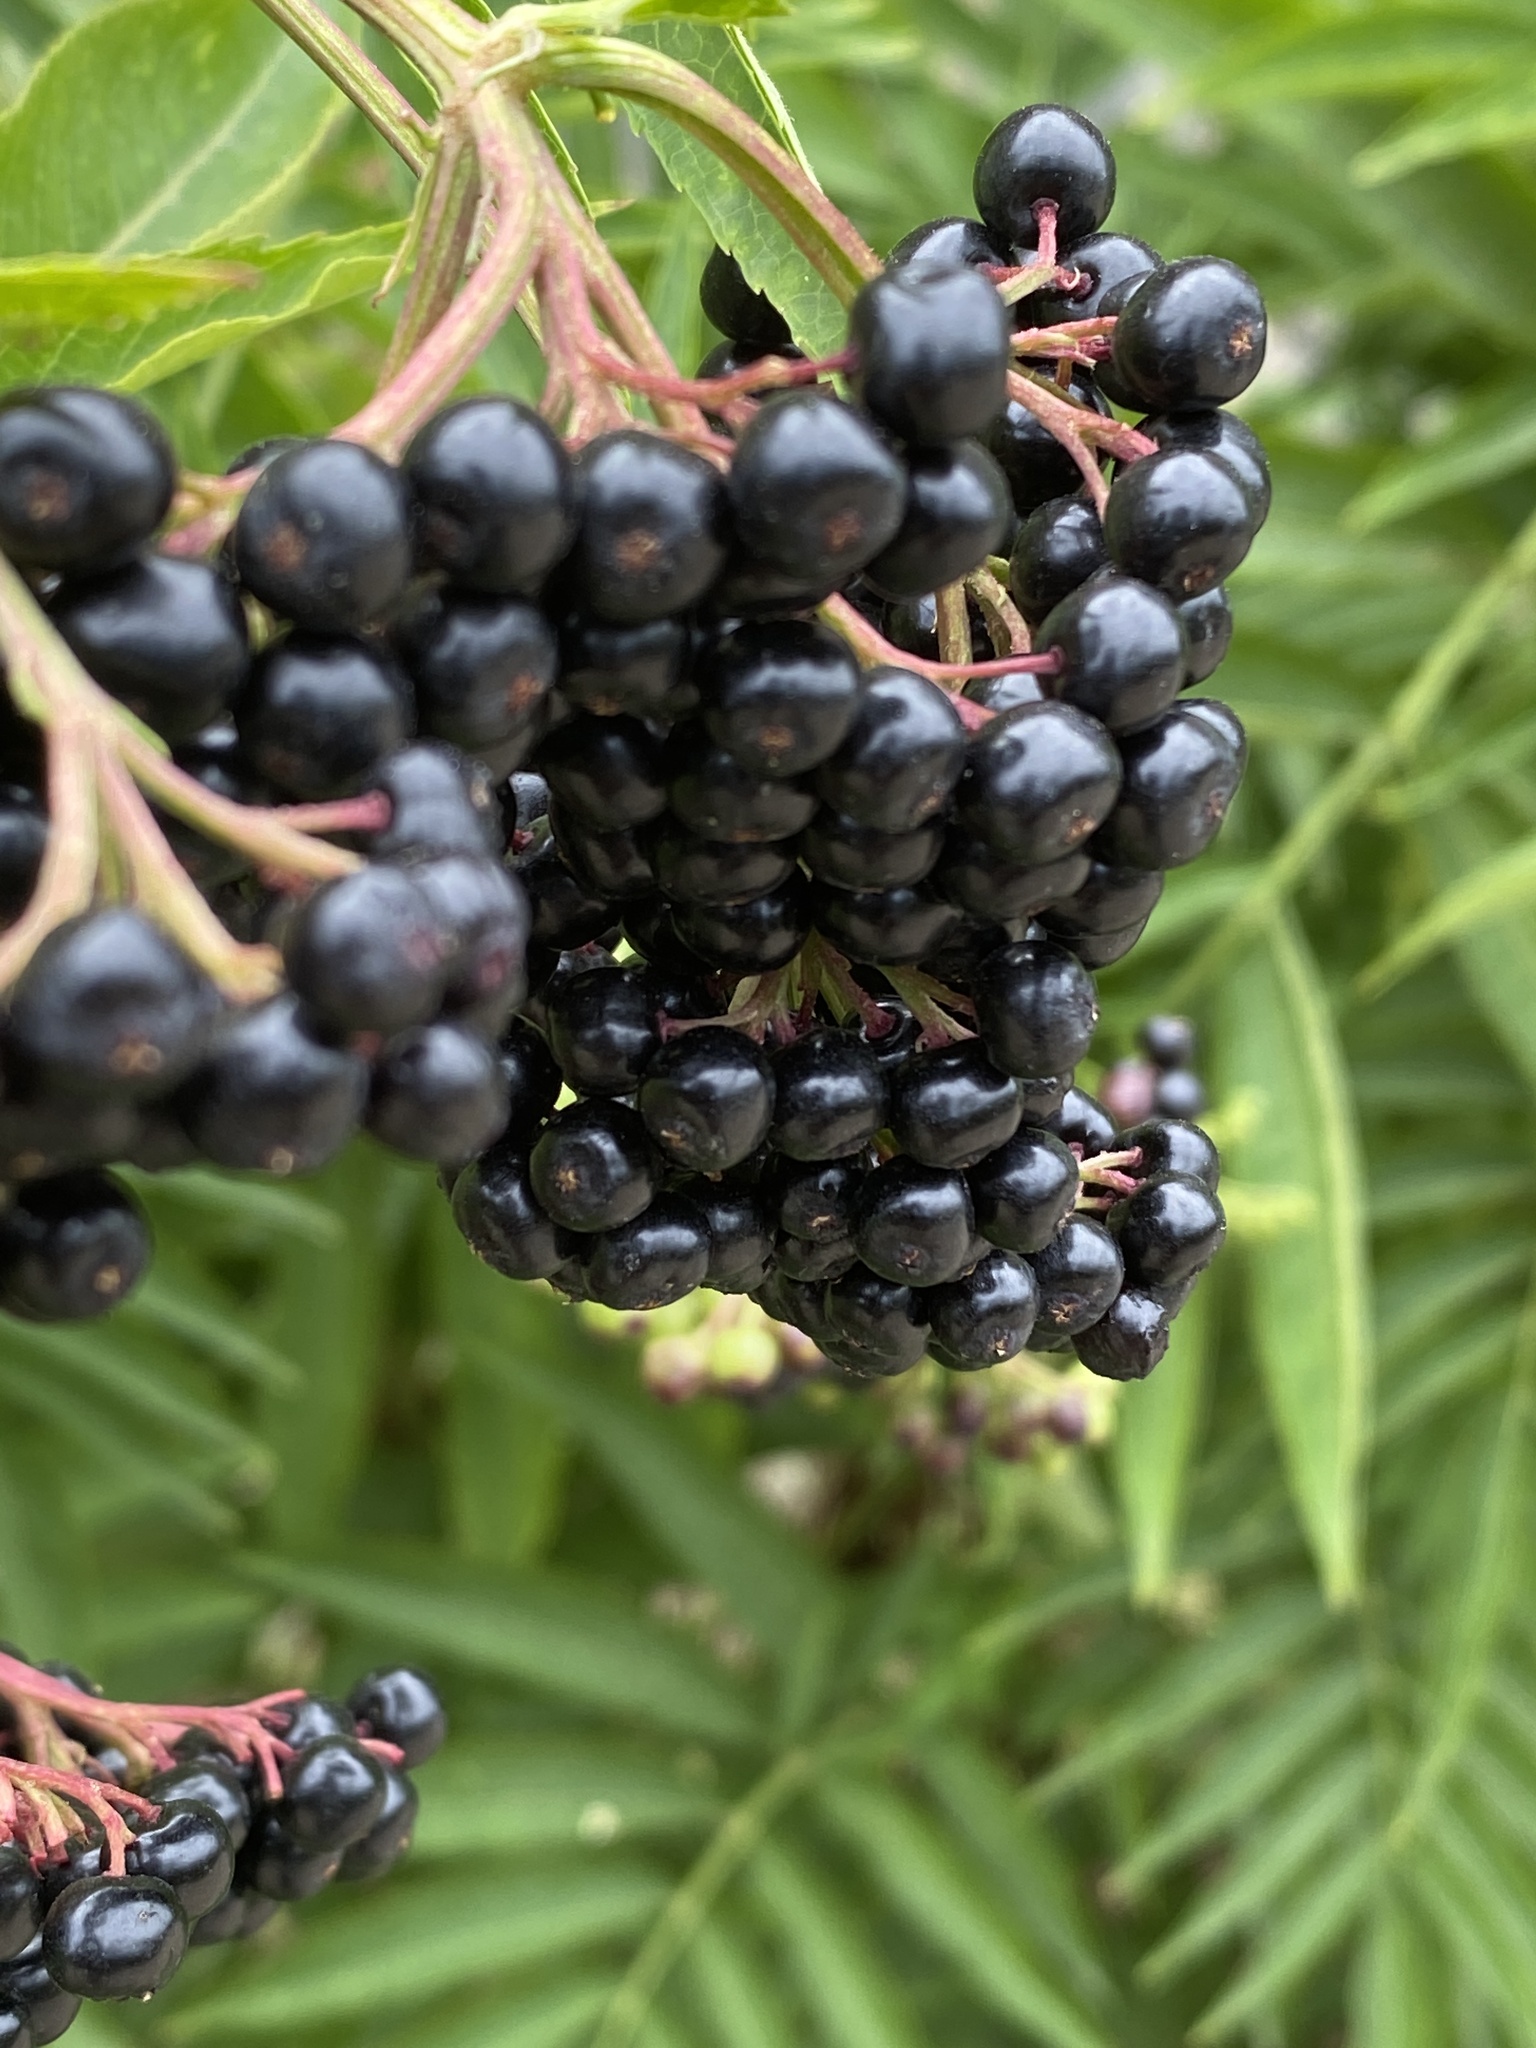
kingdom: Plantae
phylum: Tracheophyta
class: Magnoliopsida
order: Dipsacales
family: Viburnaceae
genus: Sambucus
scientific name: Sambucus ebulus
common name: Dwarf elder
